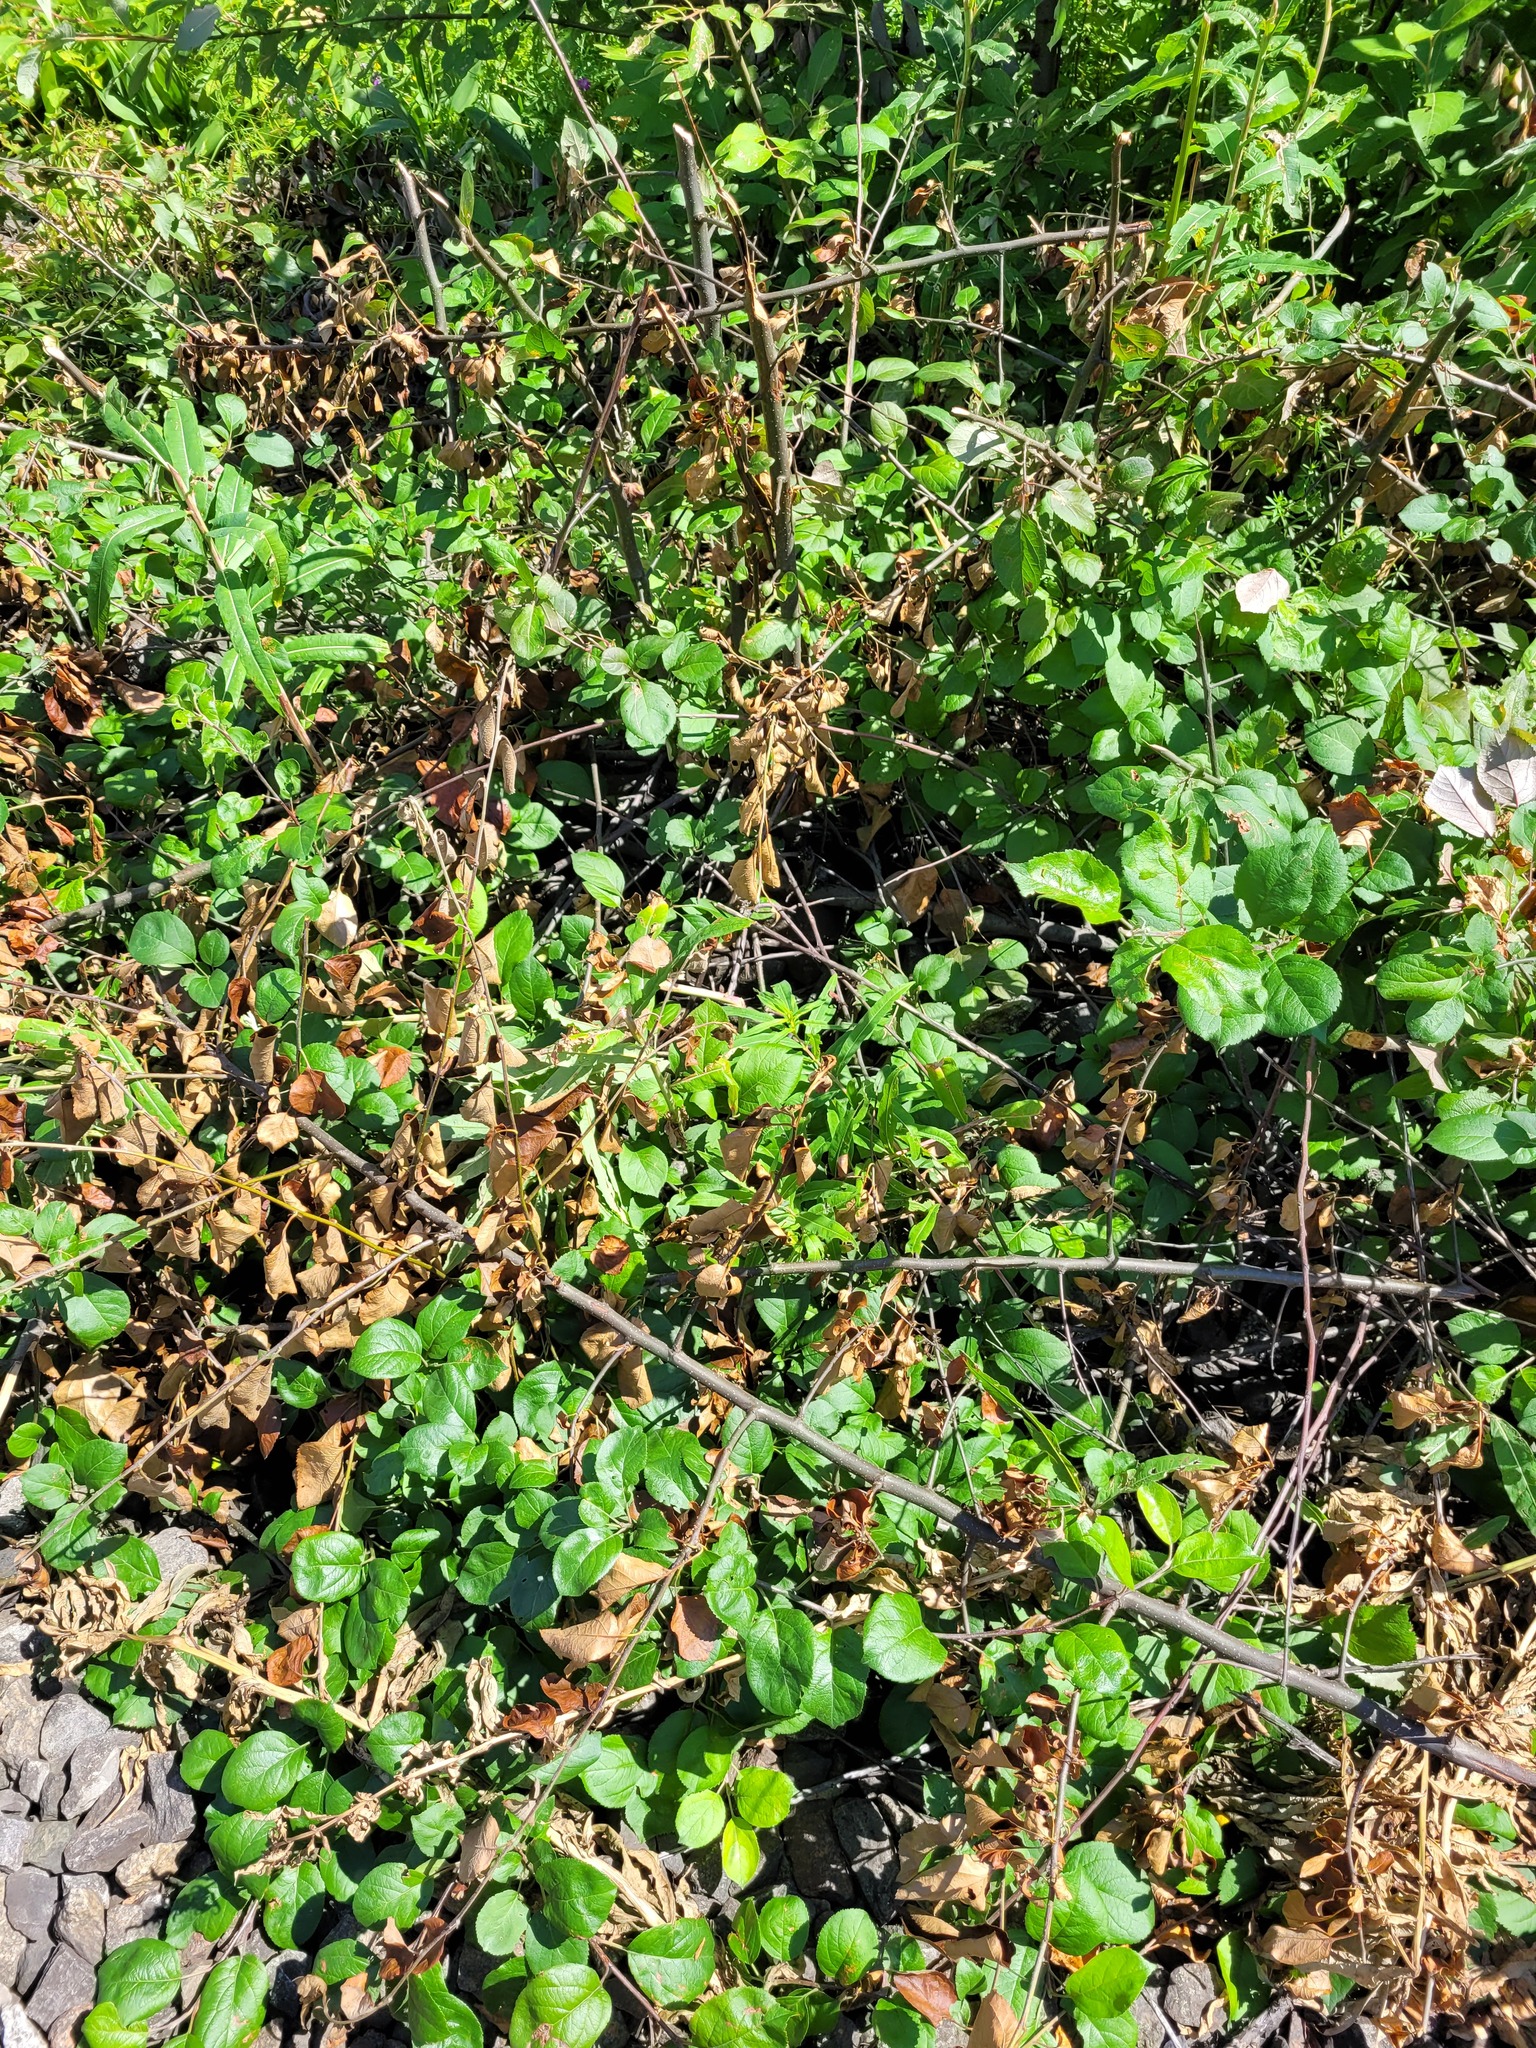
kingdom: Plantae
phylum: Tracheophyta
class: Magnoliopsida
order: Rosales
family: Rosaceae
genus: Malus
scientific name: Malus domestica
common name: Apple
